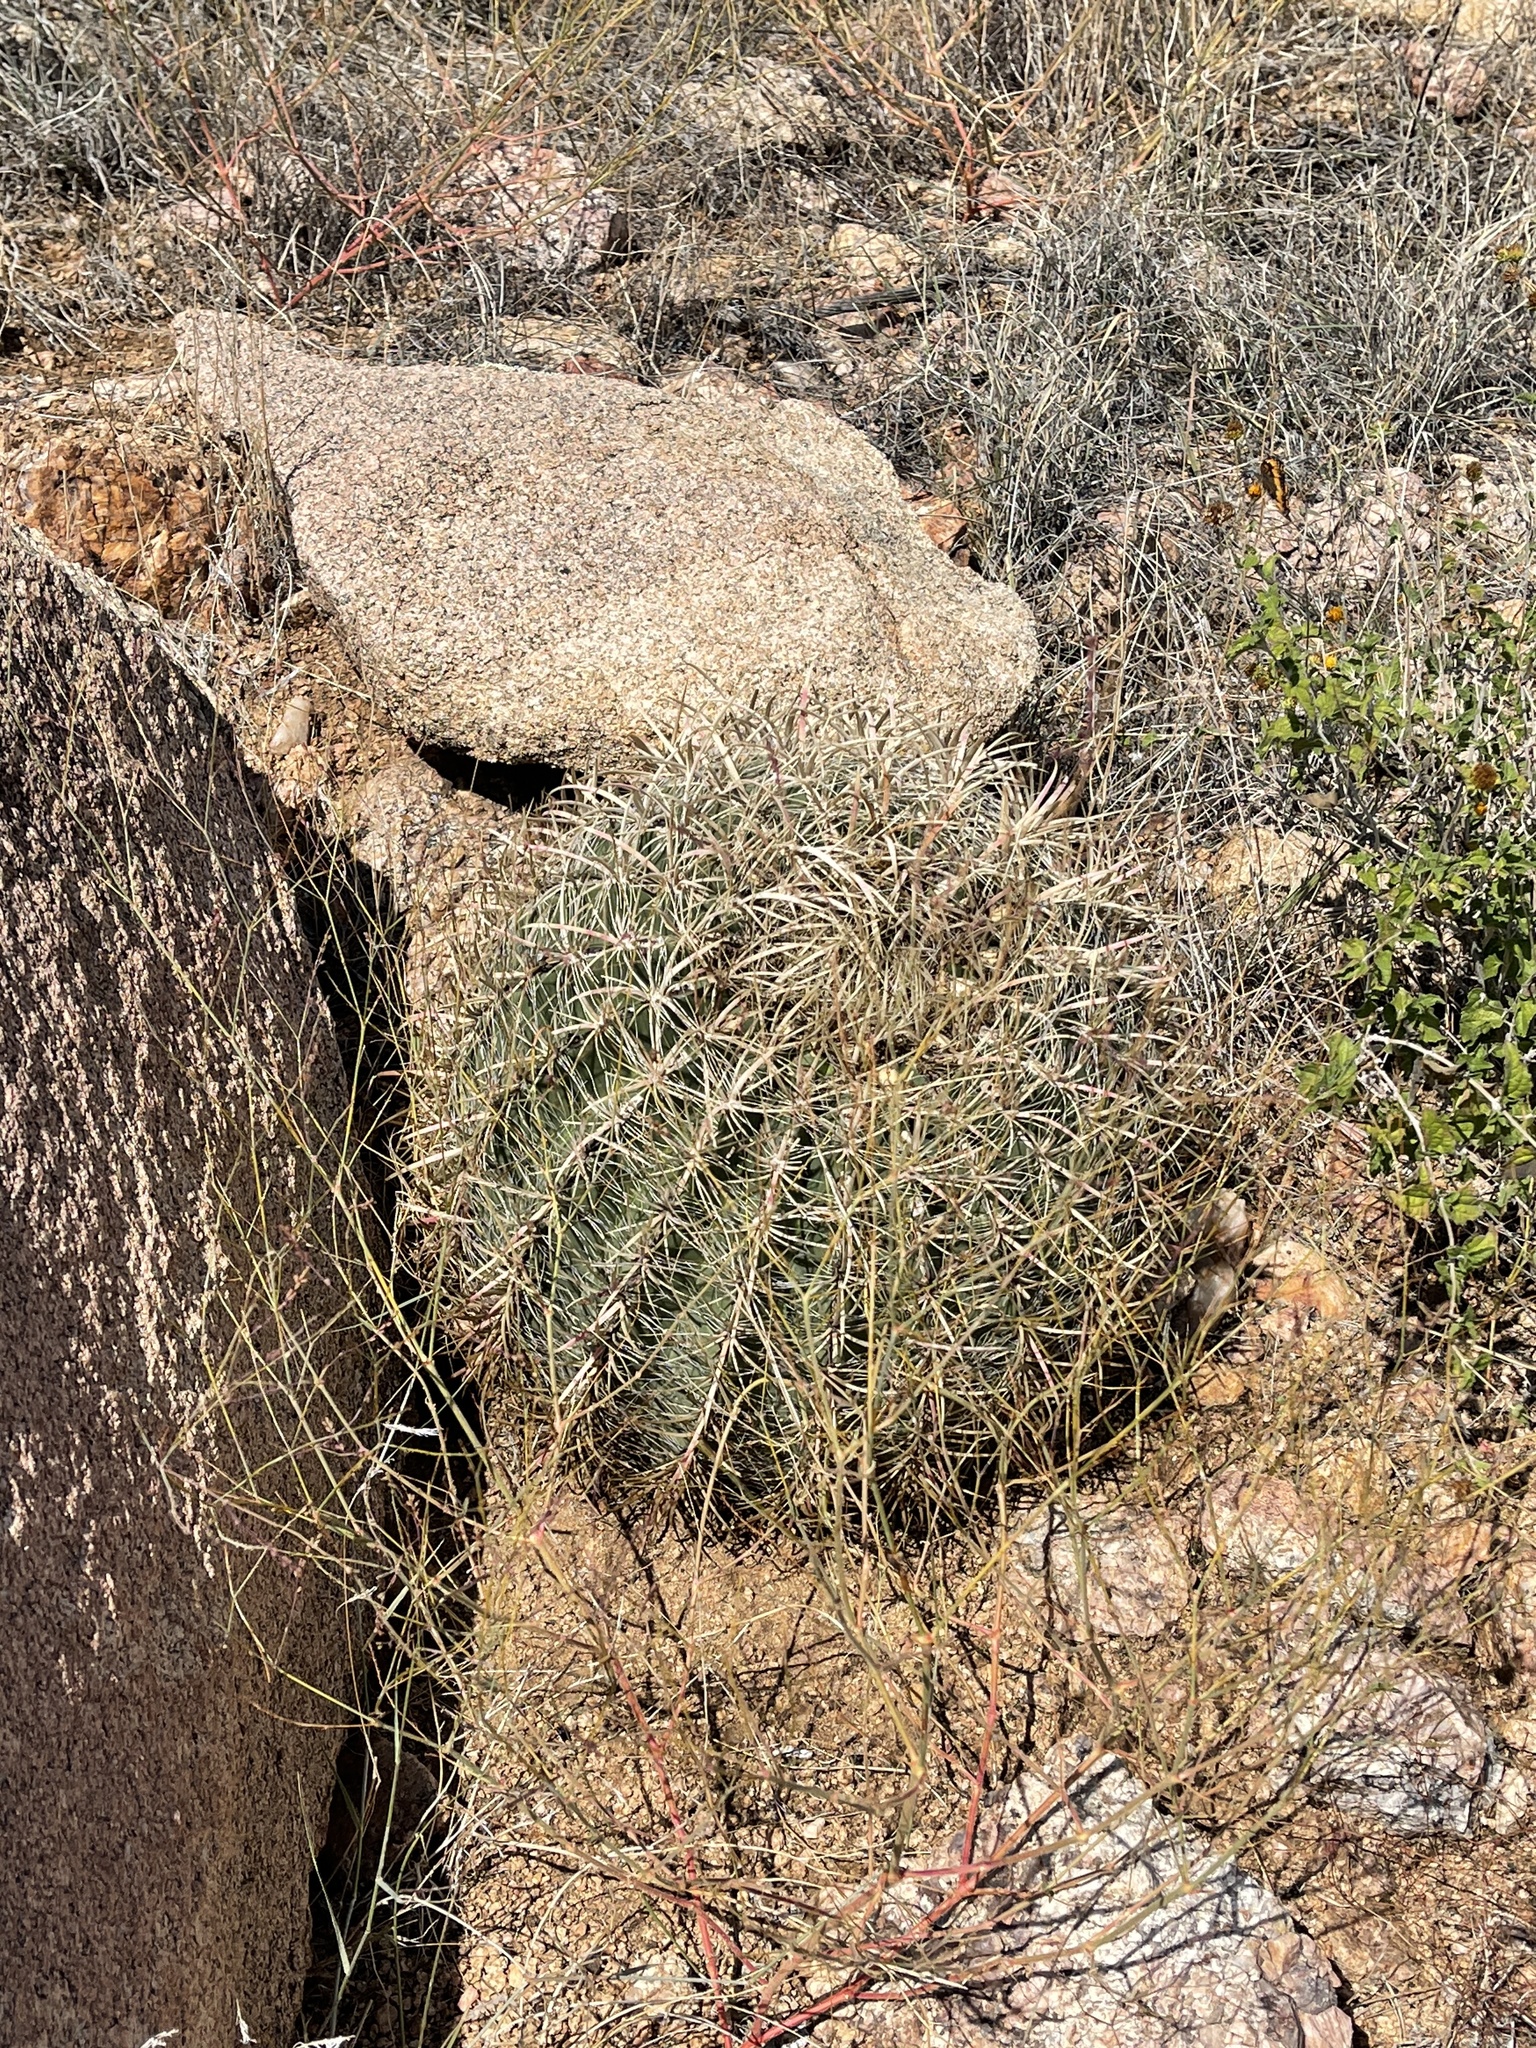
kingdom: Plantae
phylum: Tracheophyta
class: Magnoliopsida
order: Caryophyllales
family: Cactaceae
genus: Ferocactus
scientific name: Ferocactus cylindraceus
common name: California barrel cactus
